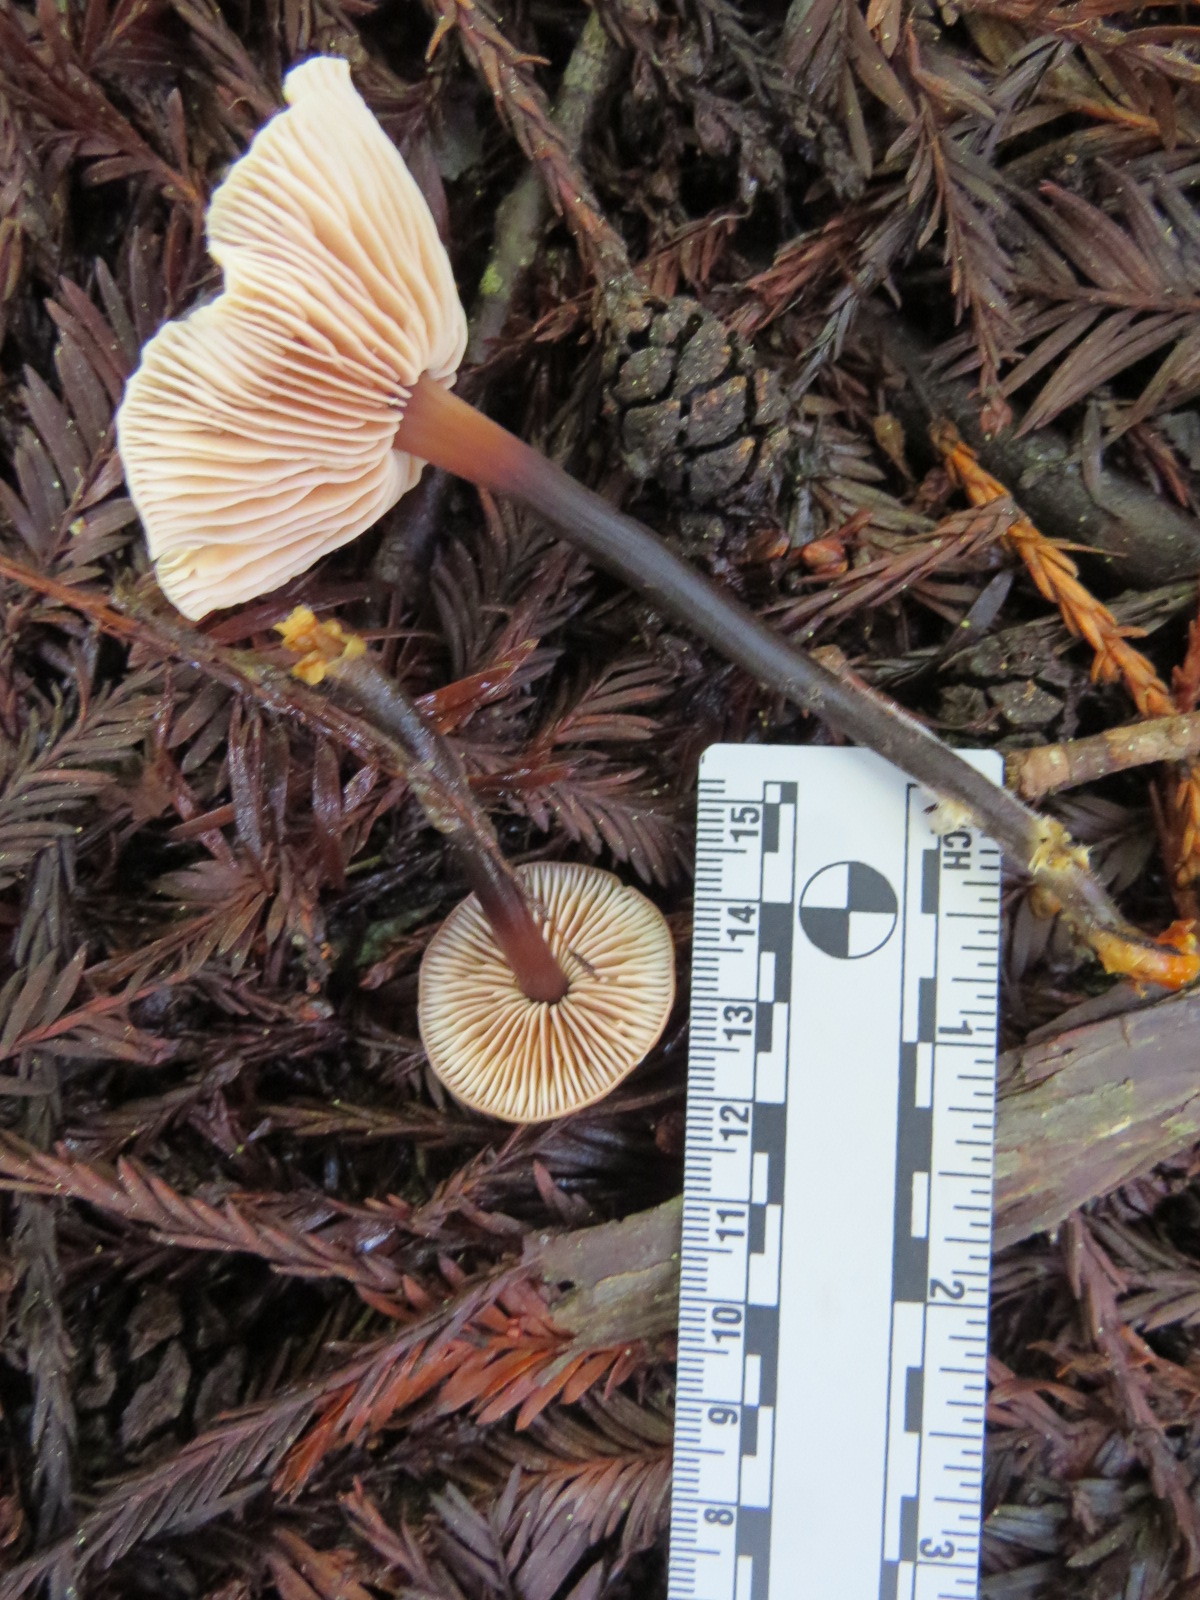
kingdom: Fungi
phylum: Basidiomycota
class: Agaricomycetes
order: Agaricales
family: Omphalotaceae
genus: Gymnopus
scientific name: Gymnopus brassicolens
